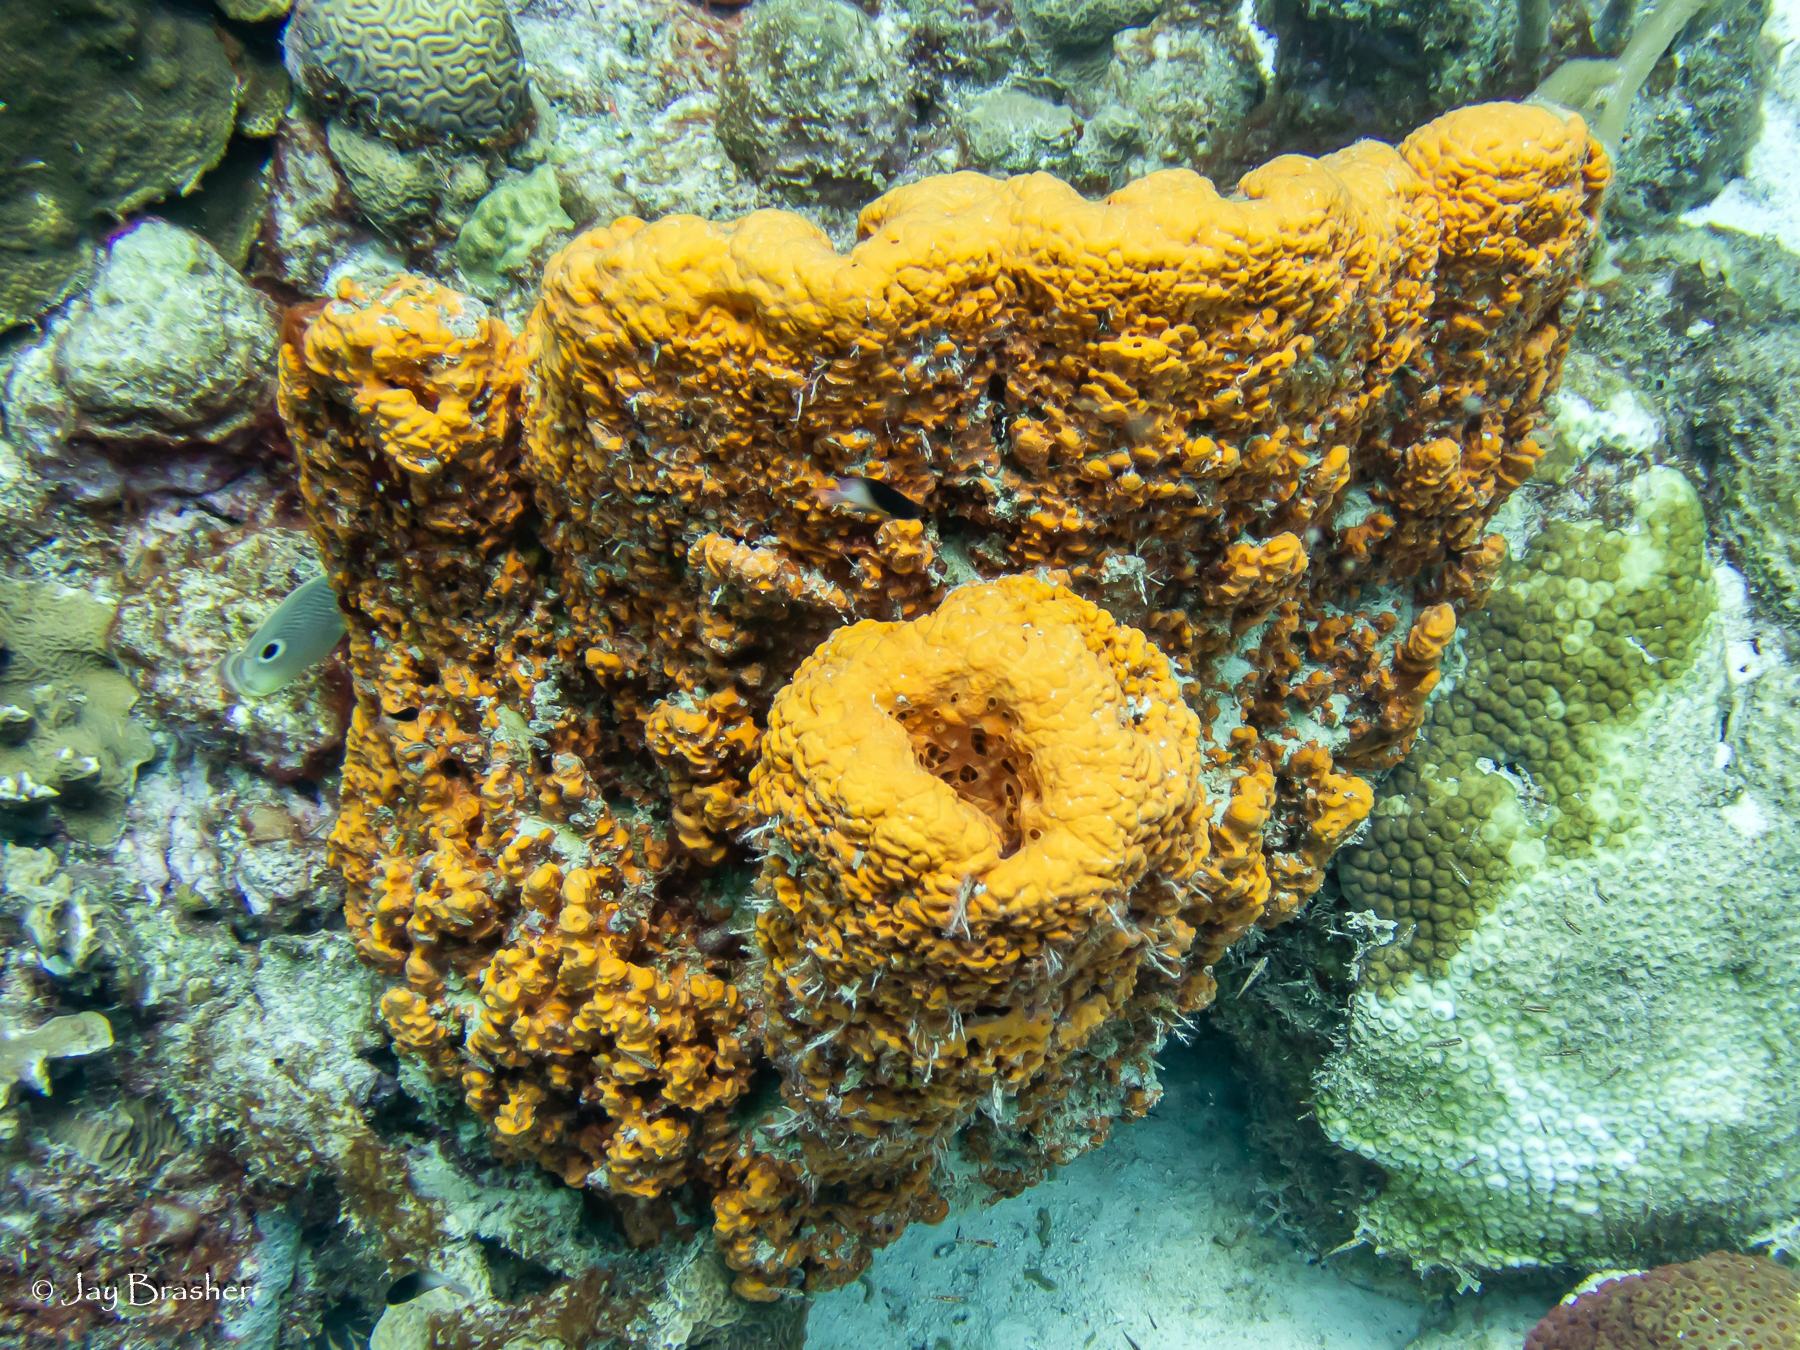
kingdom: Animalia
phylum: Porifera
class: Demospongiae
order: Agelasida
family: Agelasidae
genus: Agelas
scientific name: Agelas clathrodes
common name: Orange elephant ear sponge
